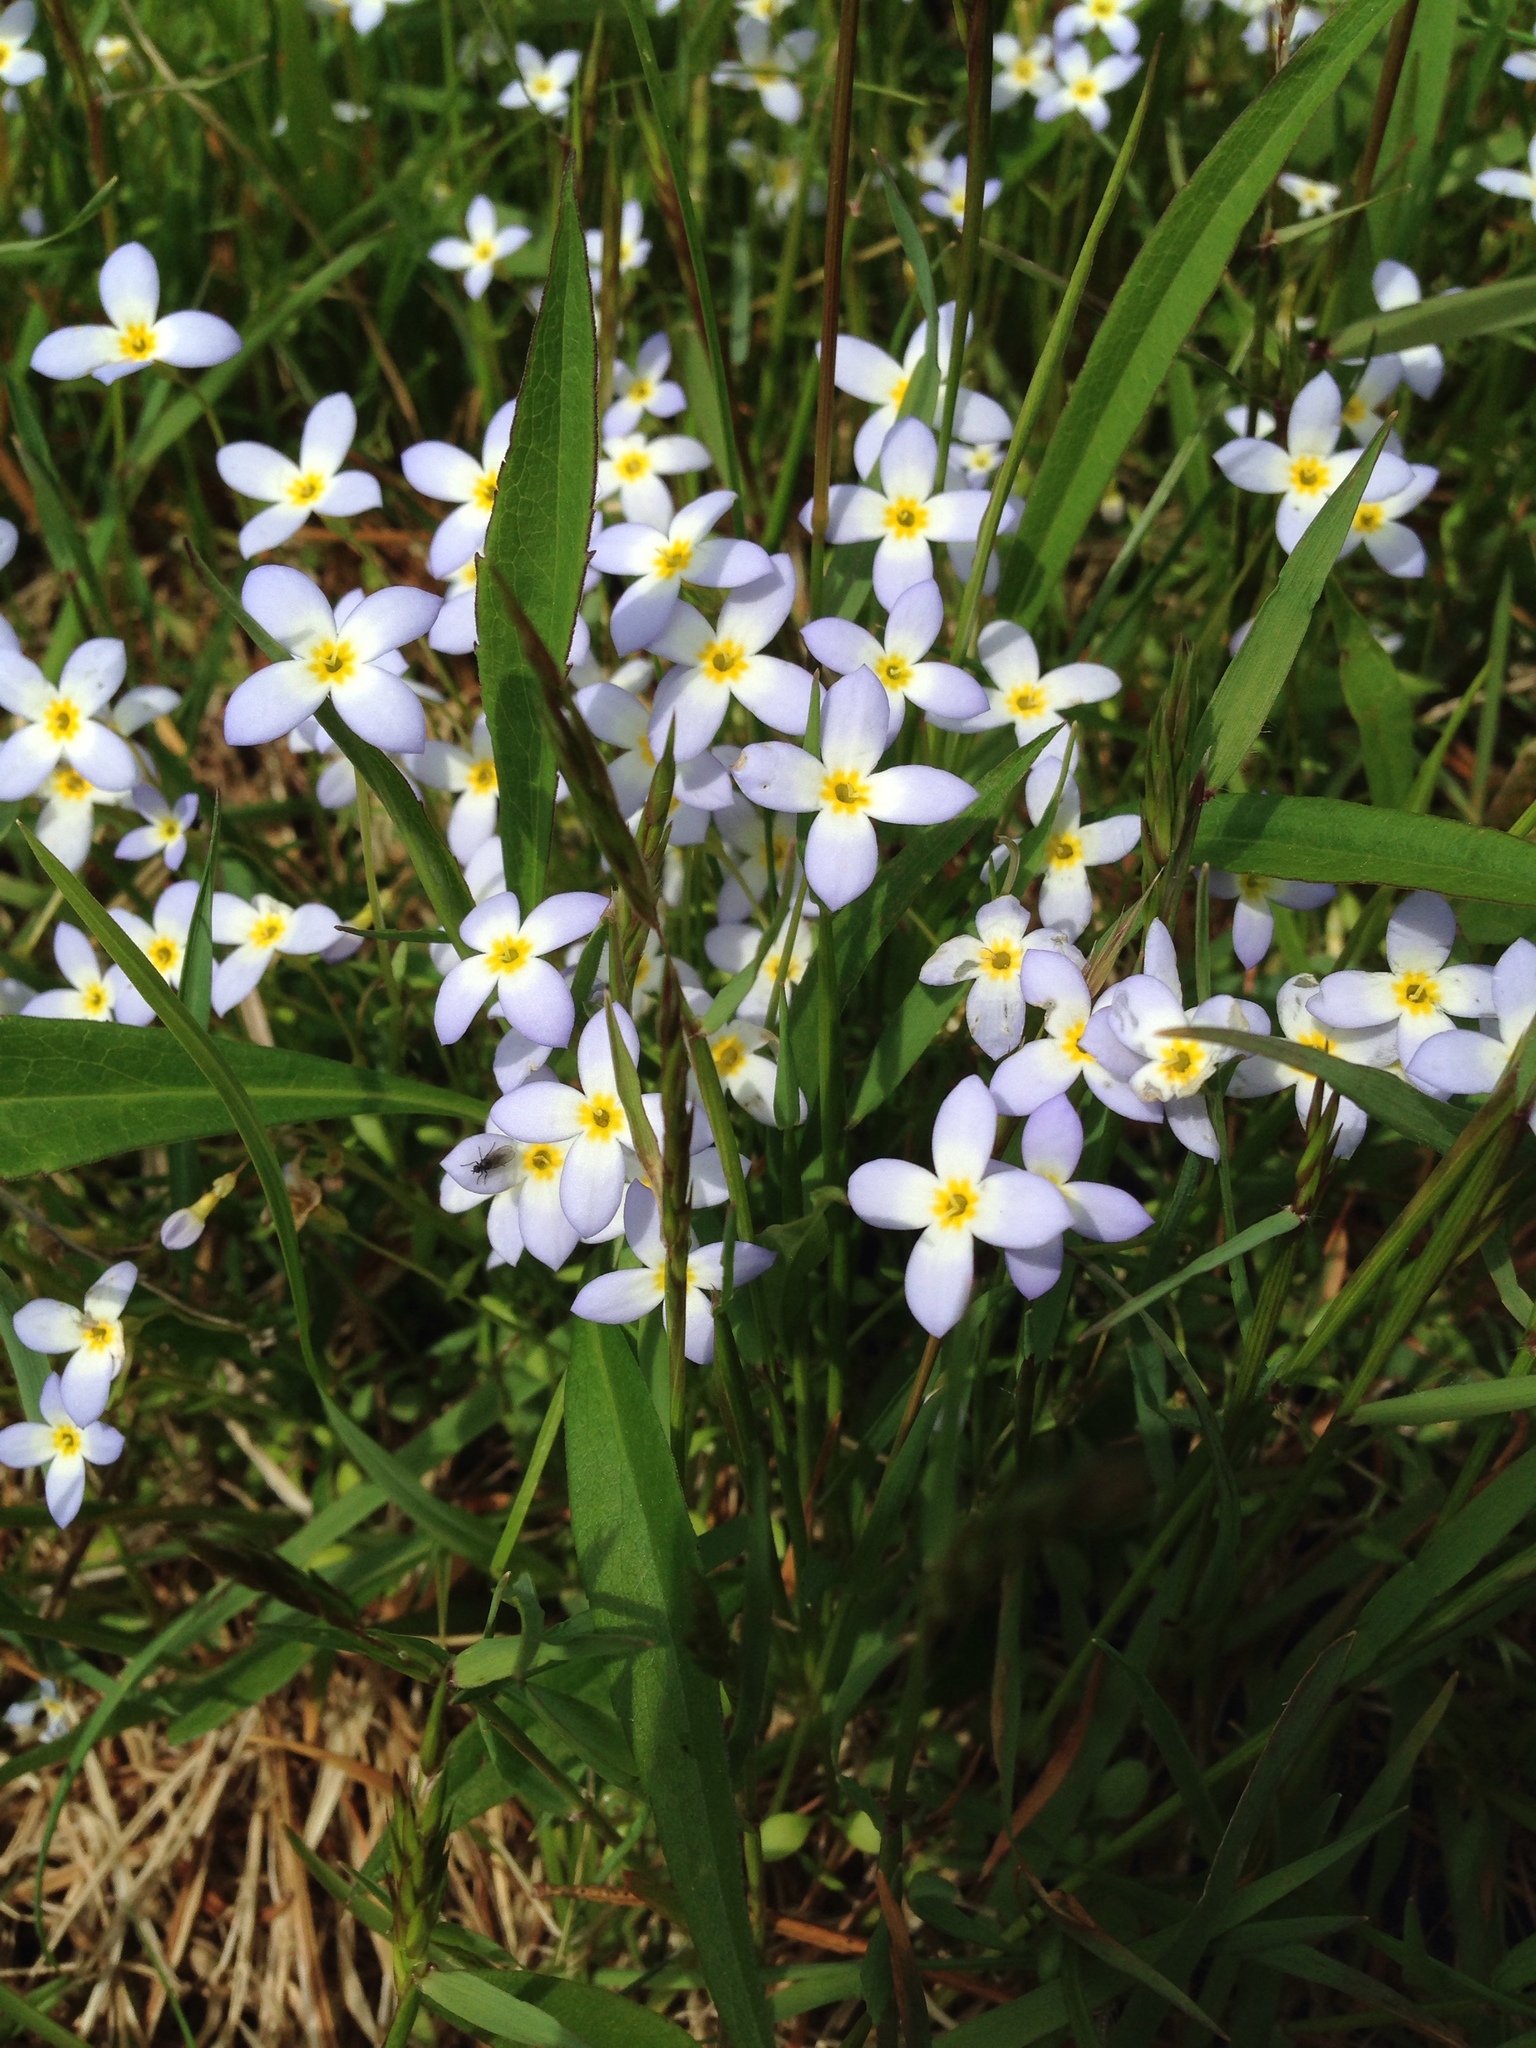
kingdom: Plantae
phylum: Tracheophyta
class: Magnoliopsida
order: Gentianales
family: Rubiaceae
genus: Houstonia
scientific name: Houstonia caerulea
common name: Bluets
